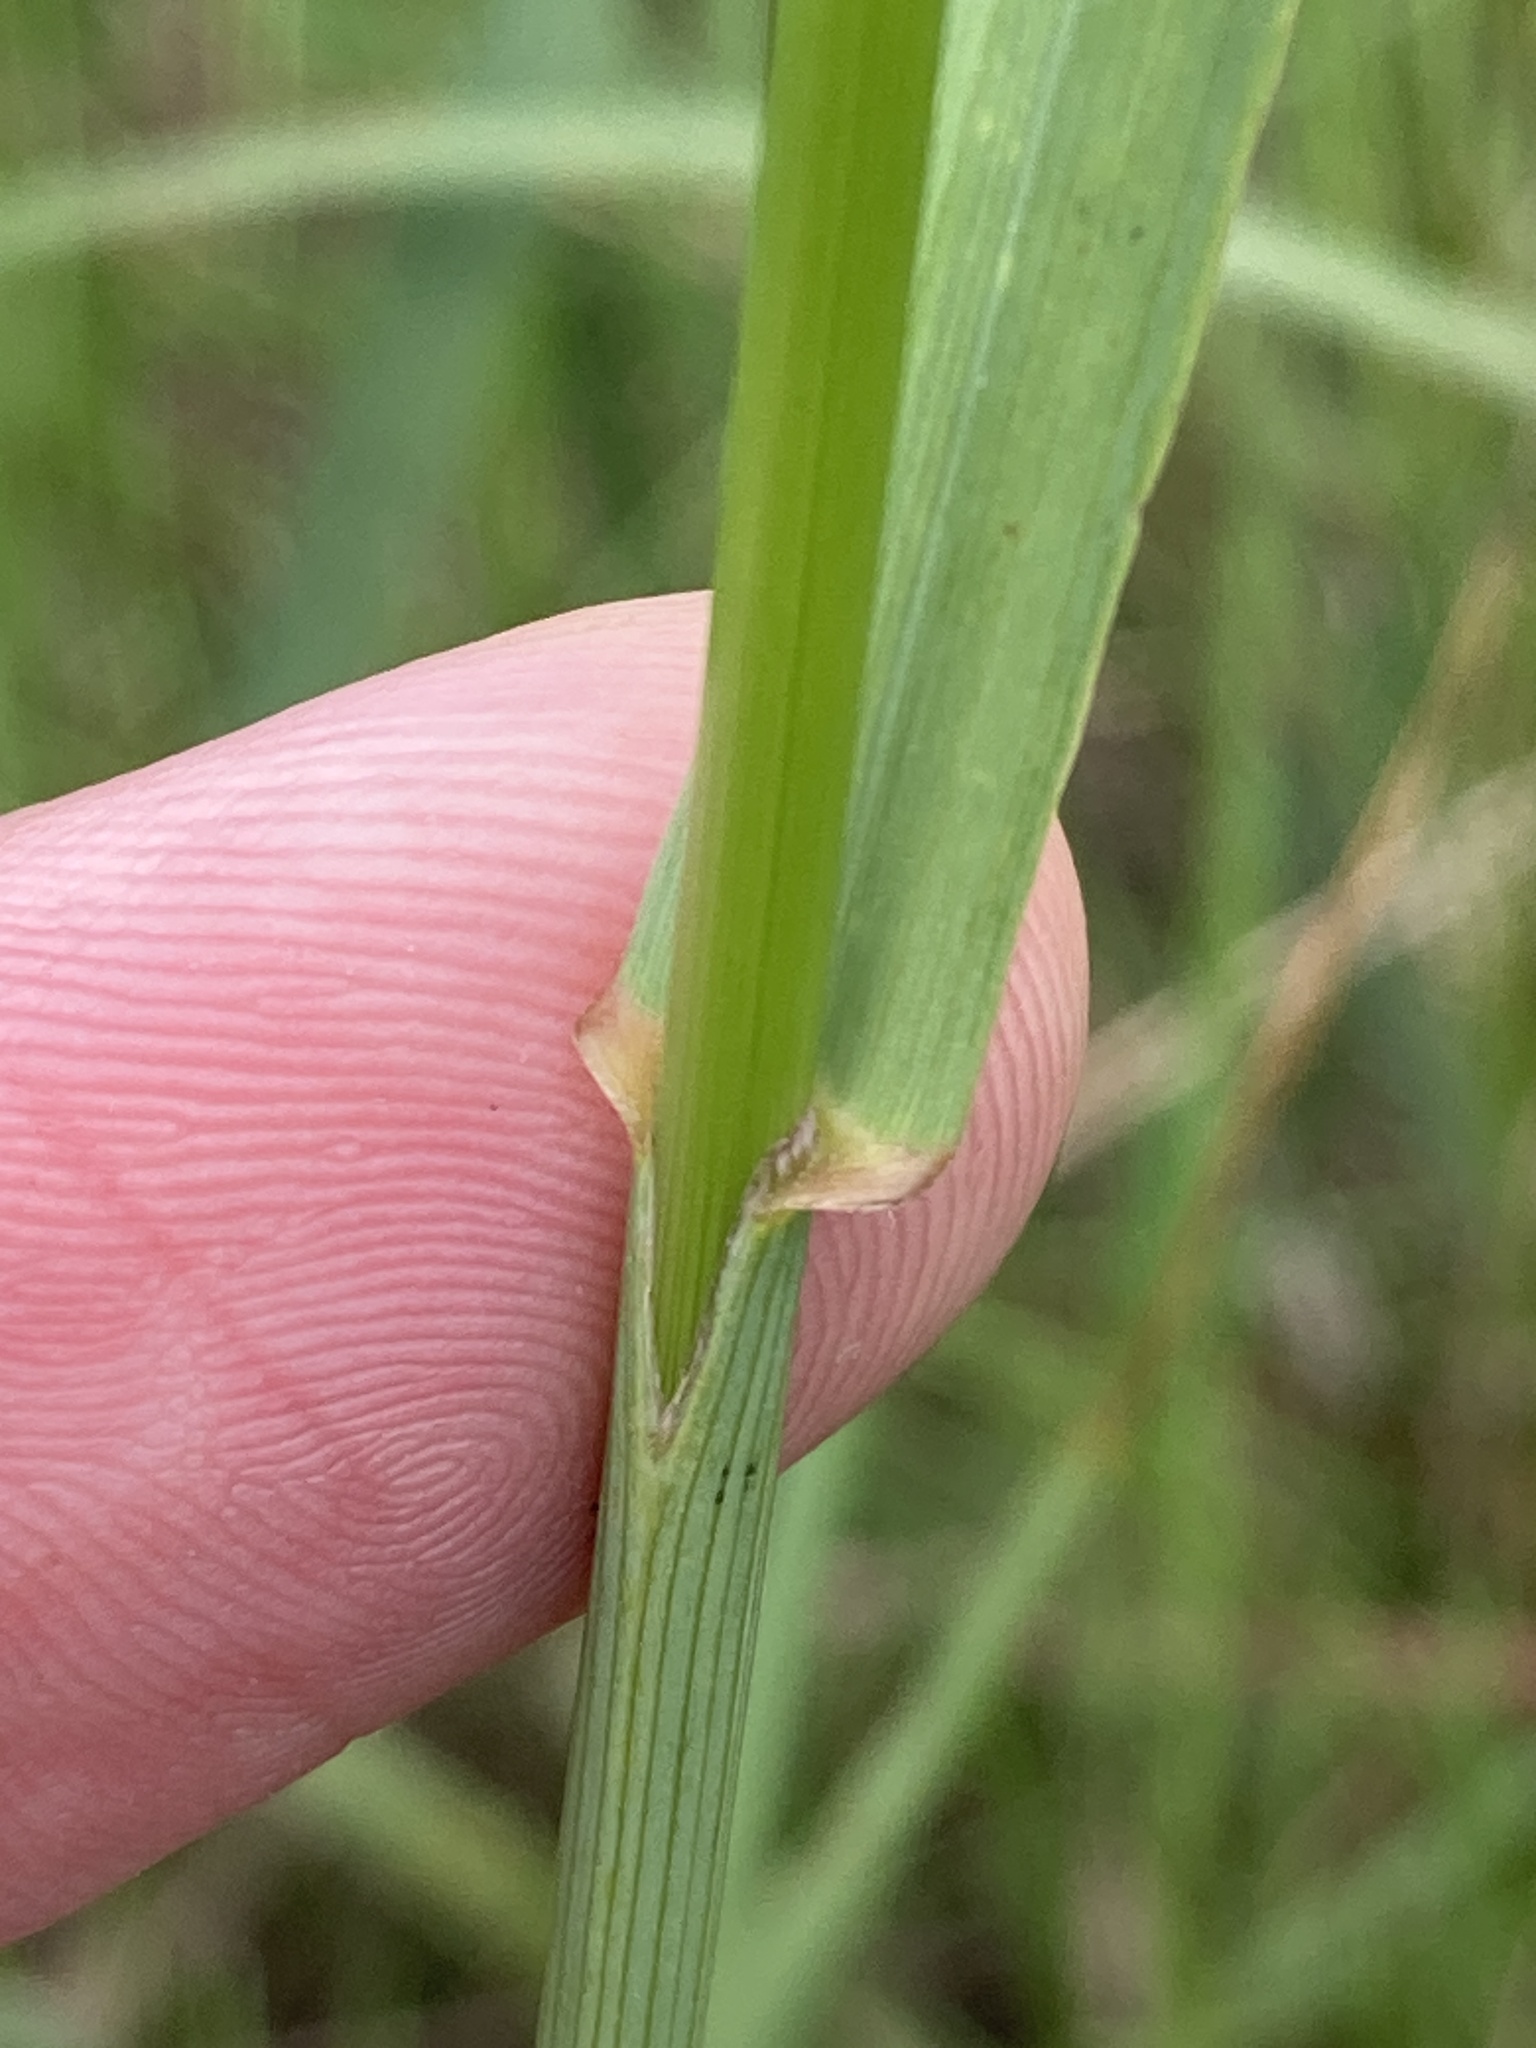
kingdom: Plantae
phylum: Tracheophyta
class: Liliopsida
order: Poales
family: Poaceae
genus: Bromus
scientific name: Bromus inermis
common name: Smooth brome
